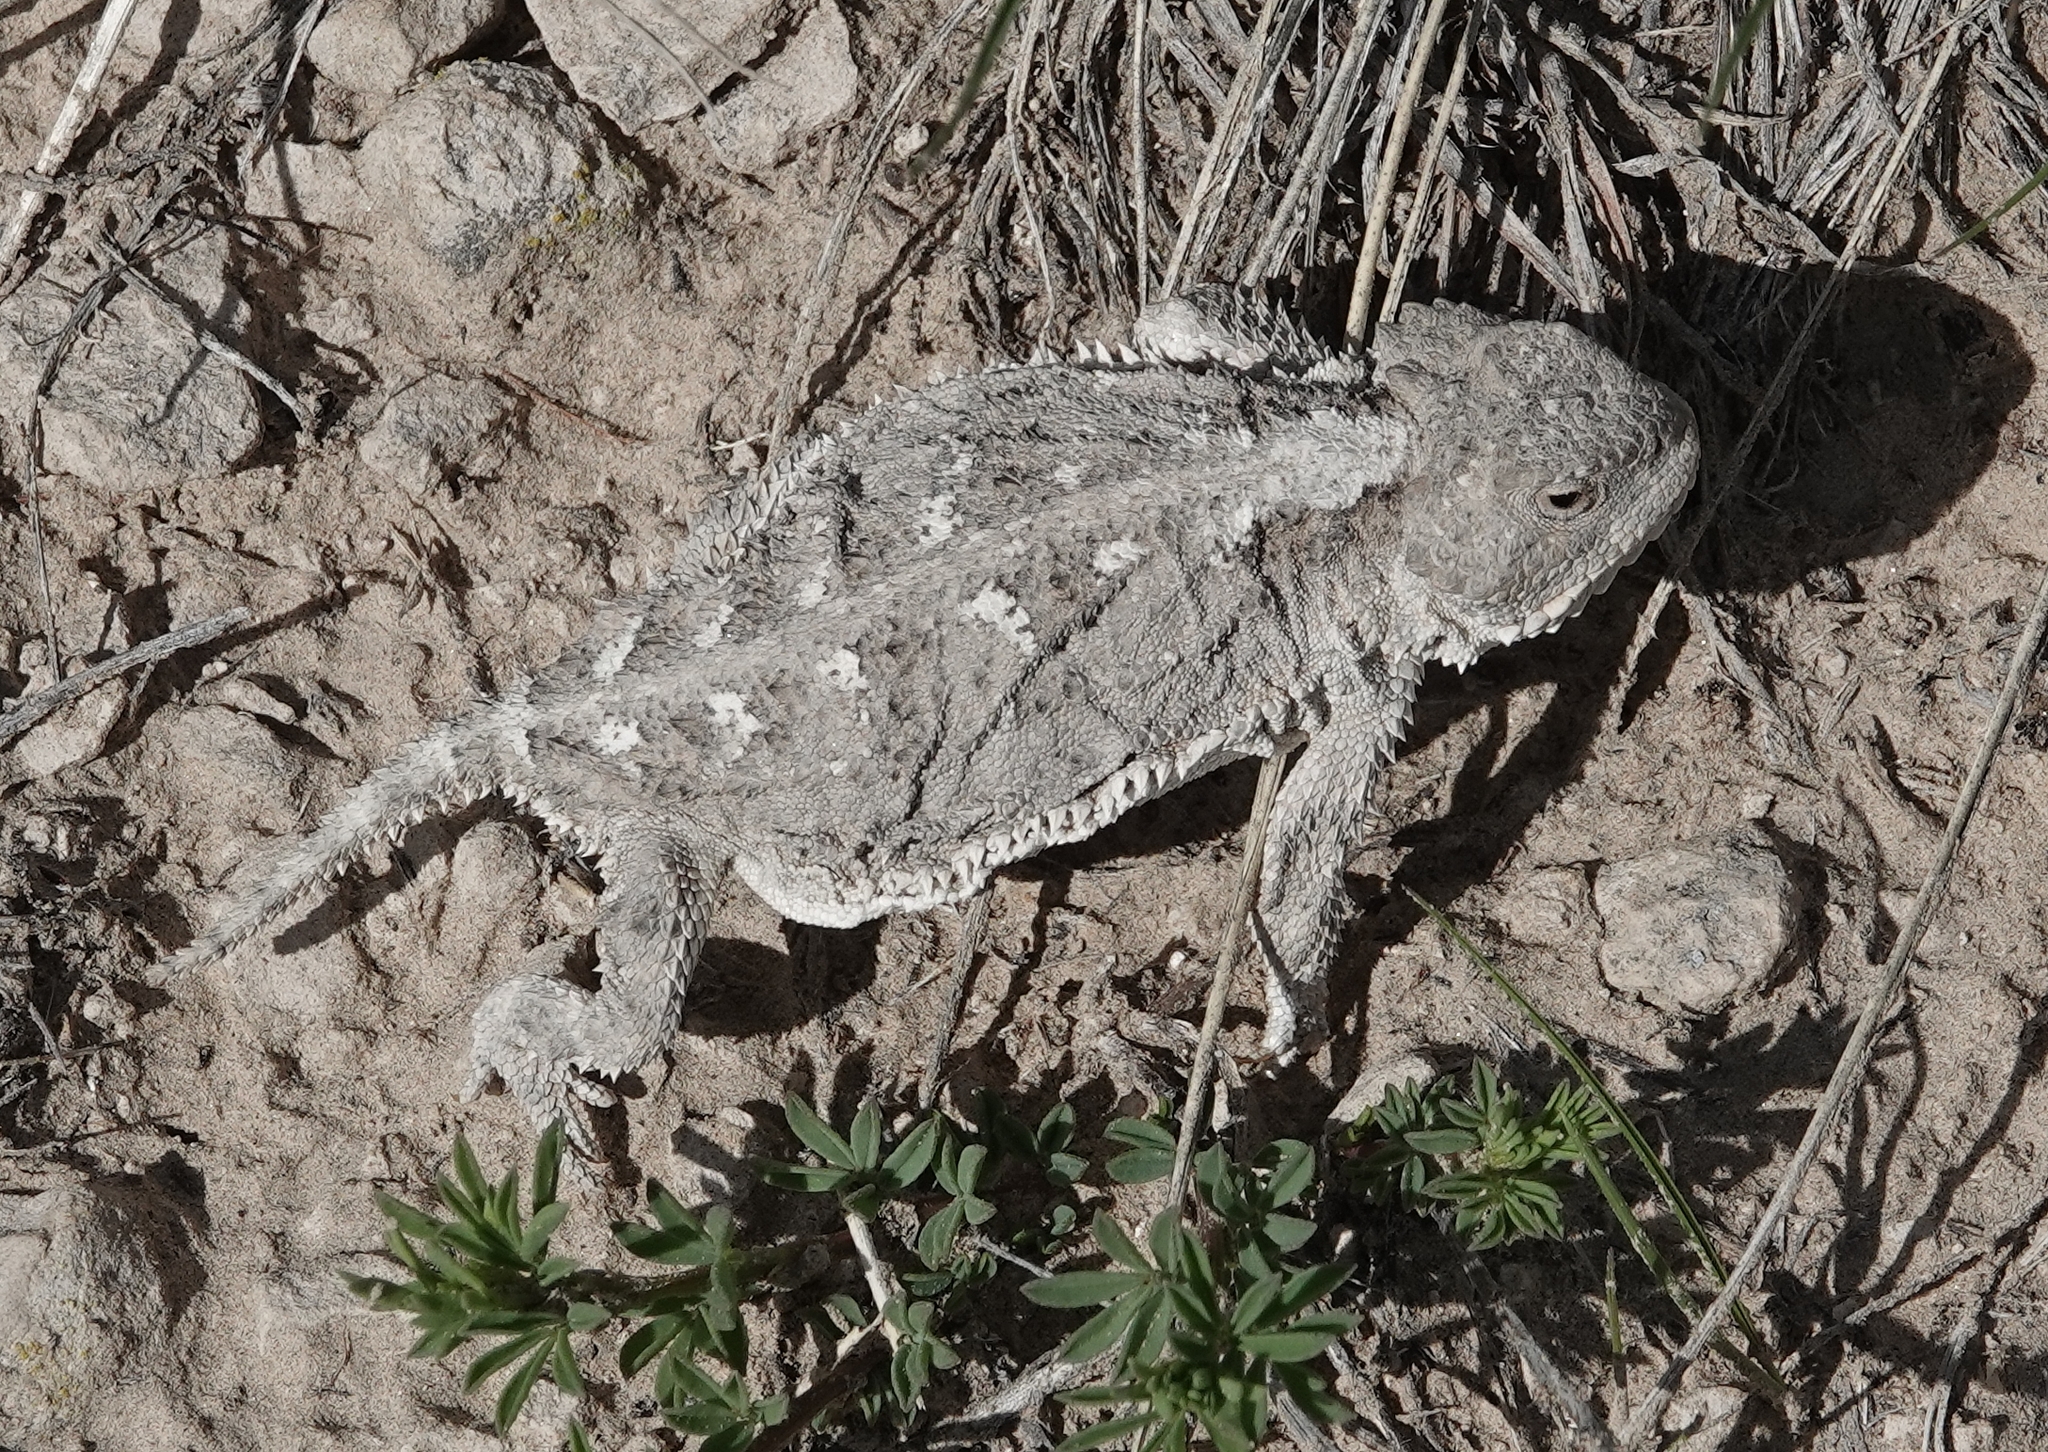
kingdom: Animalia
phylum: Chordata
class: Squamata
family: Phrynosomatidae
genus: Phrynosoma
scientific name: Phrynosoma hernandesi
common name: Greater short-horned lizard
